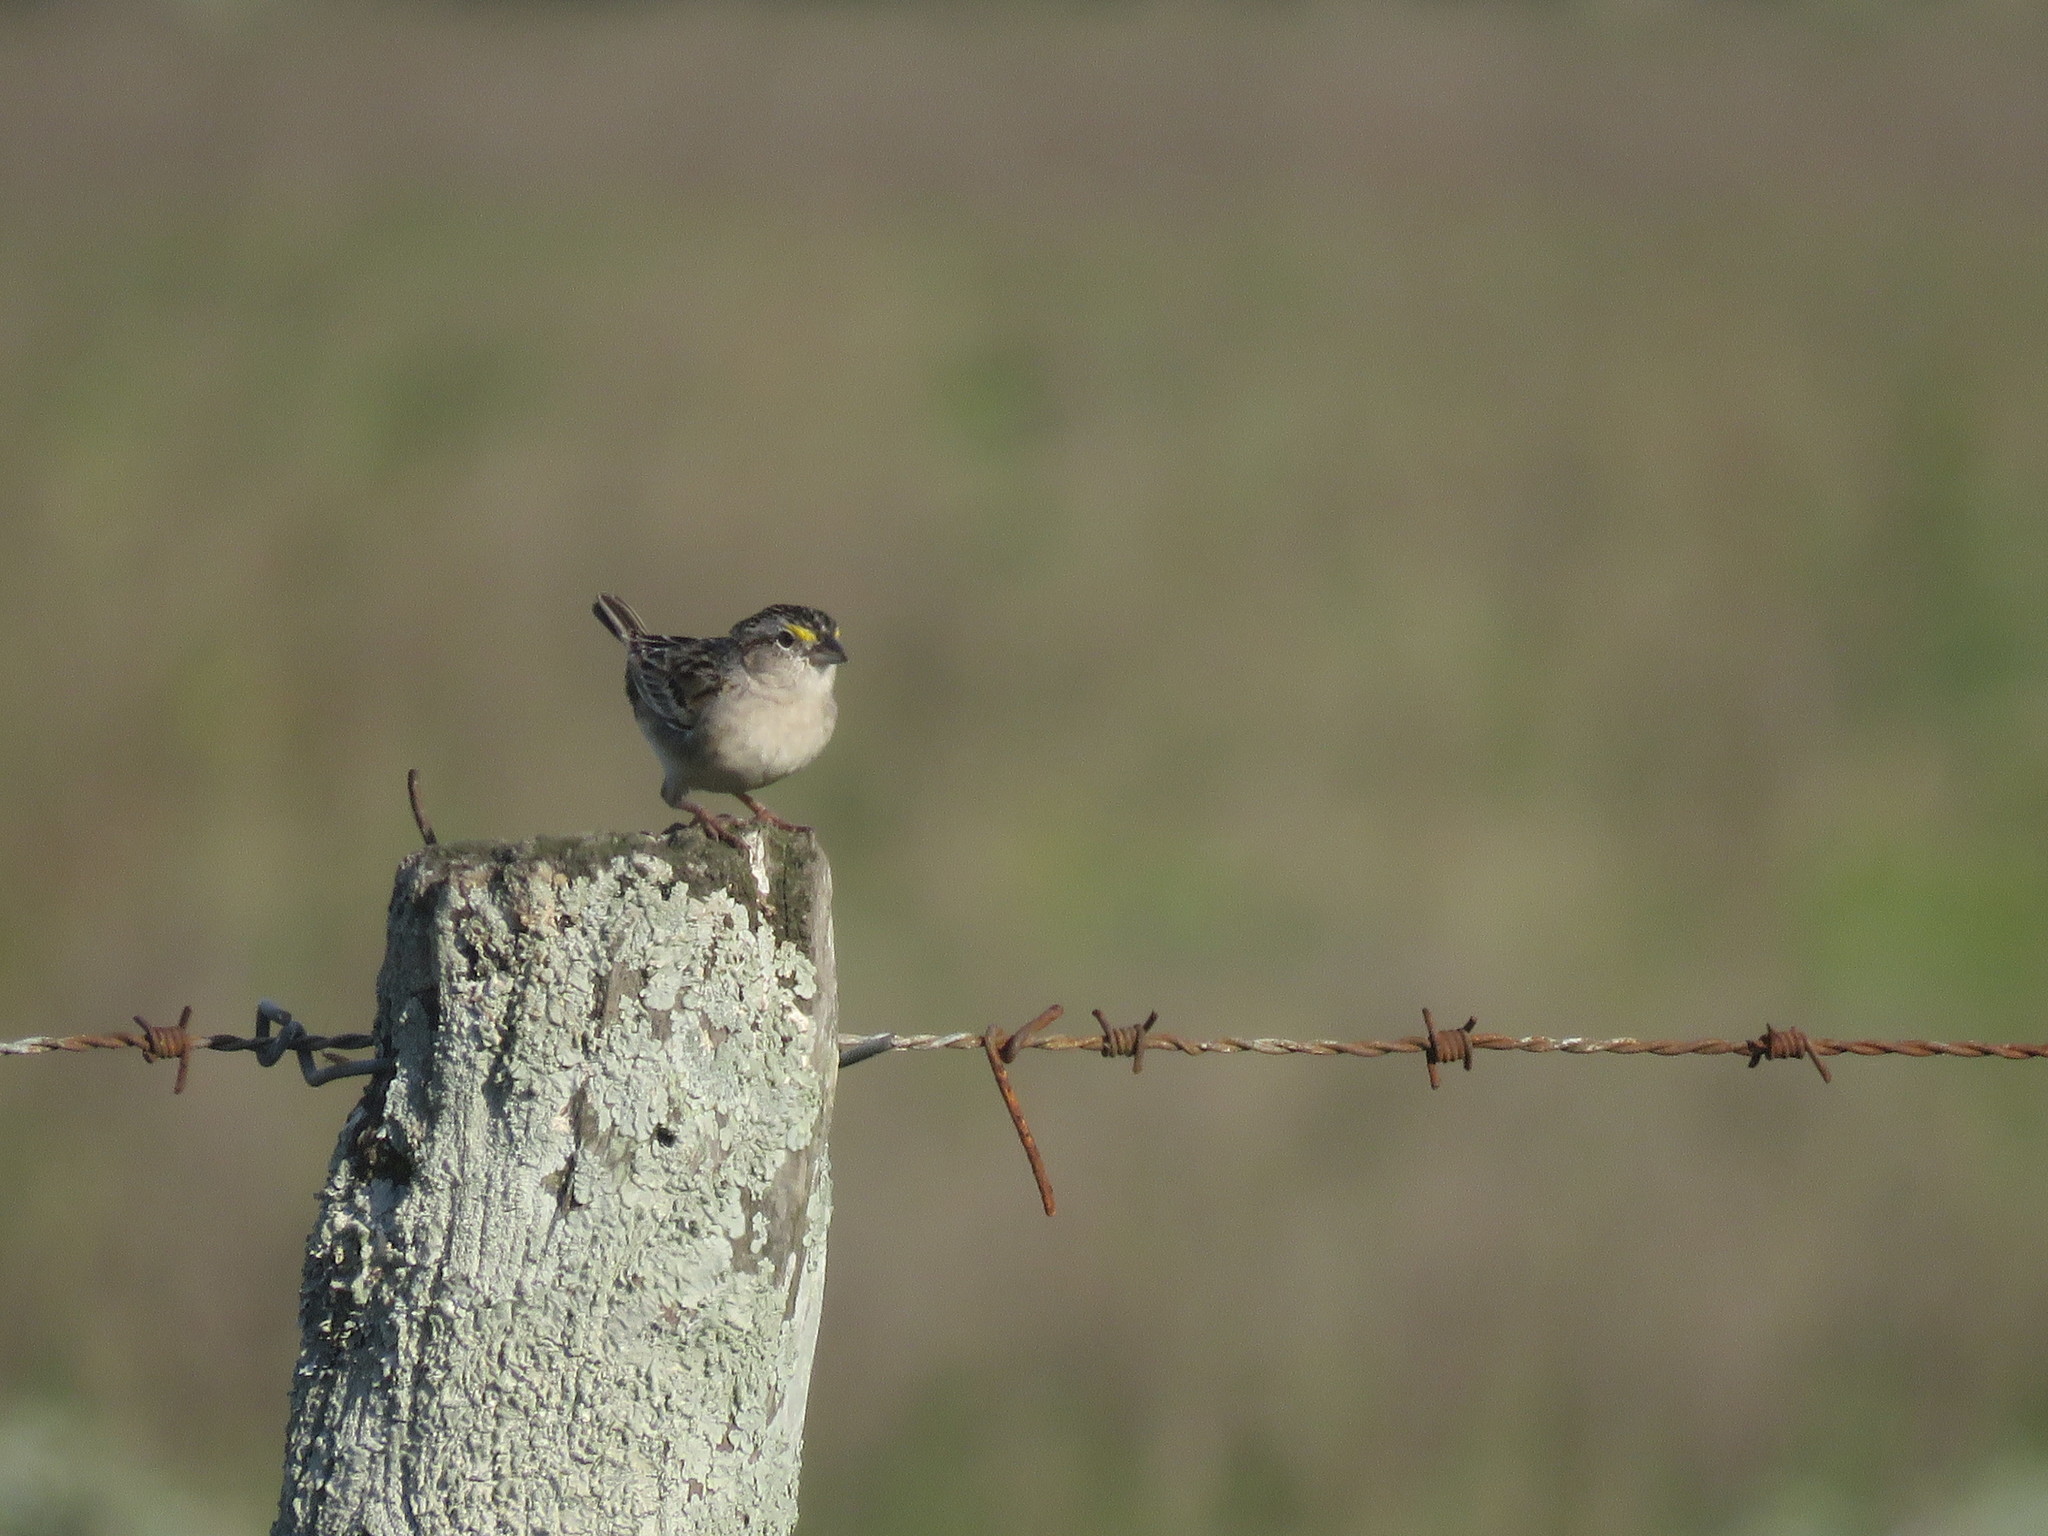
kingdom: Animalia
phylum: Chordata
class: Aves
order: Passeriformes
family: Passerellidae
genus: Ammodramus
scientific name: Ammodramus humeralis
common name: Grassland sparrow
